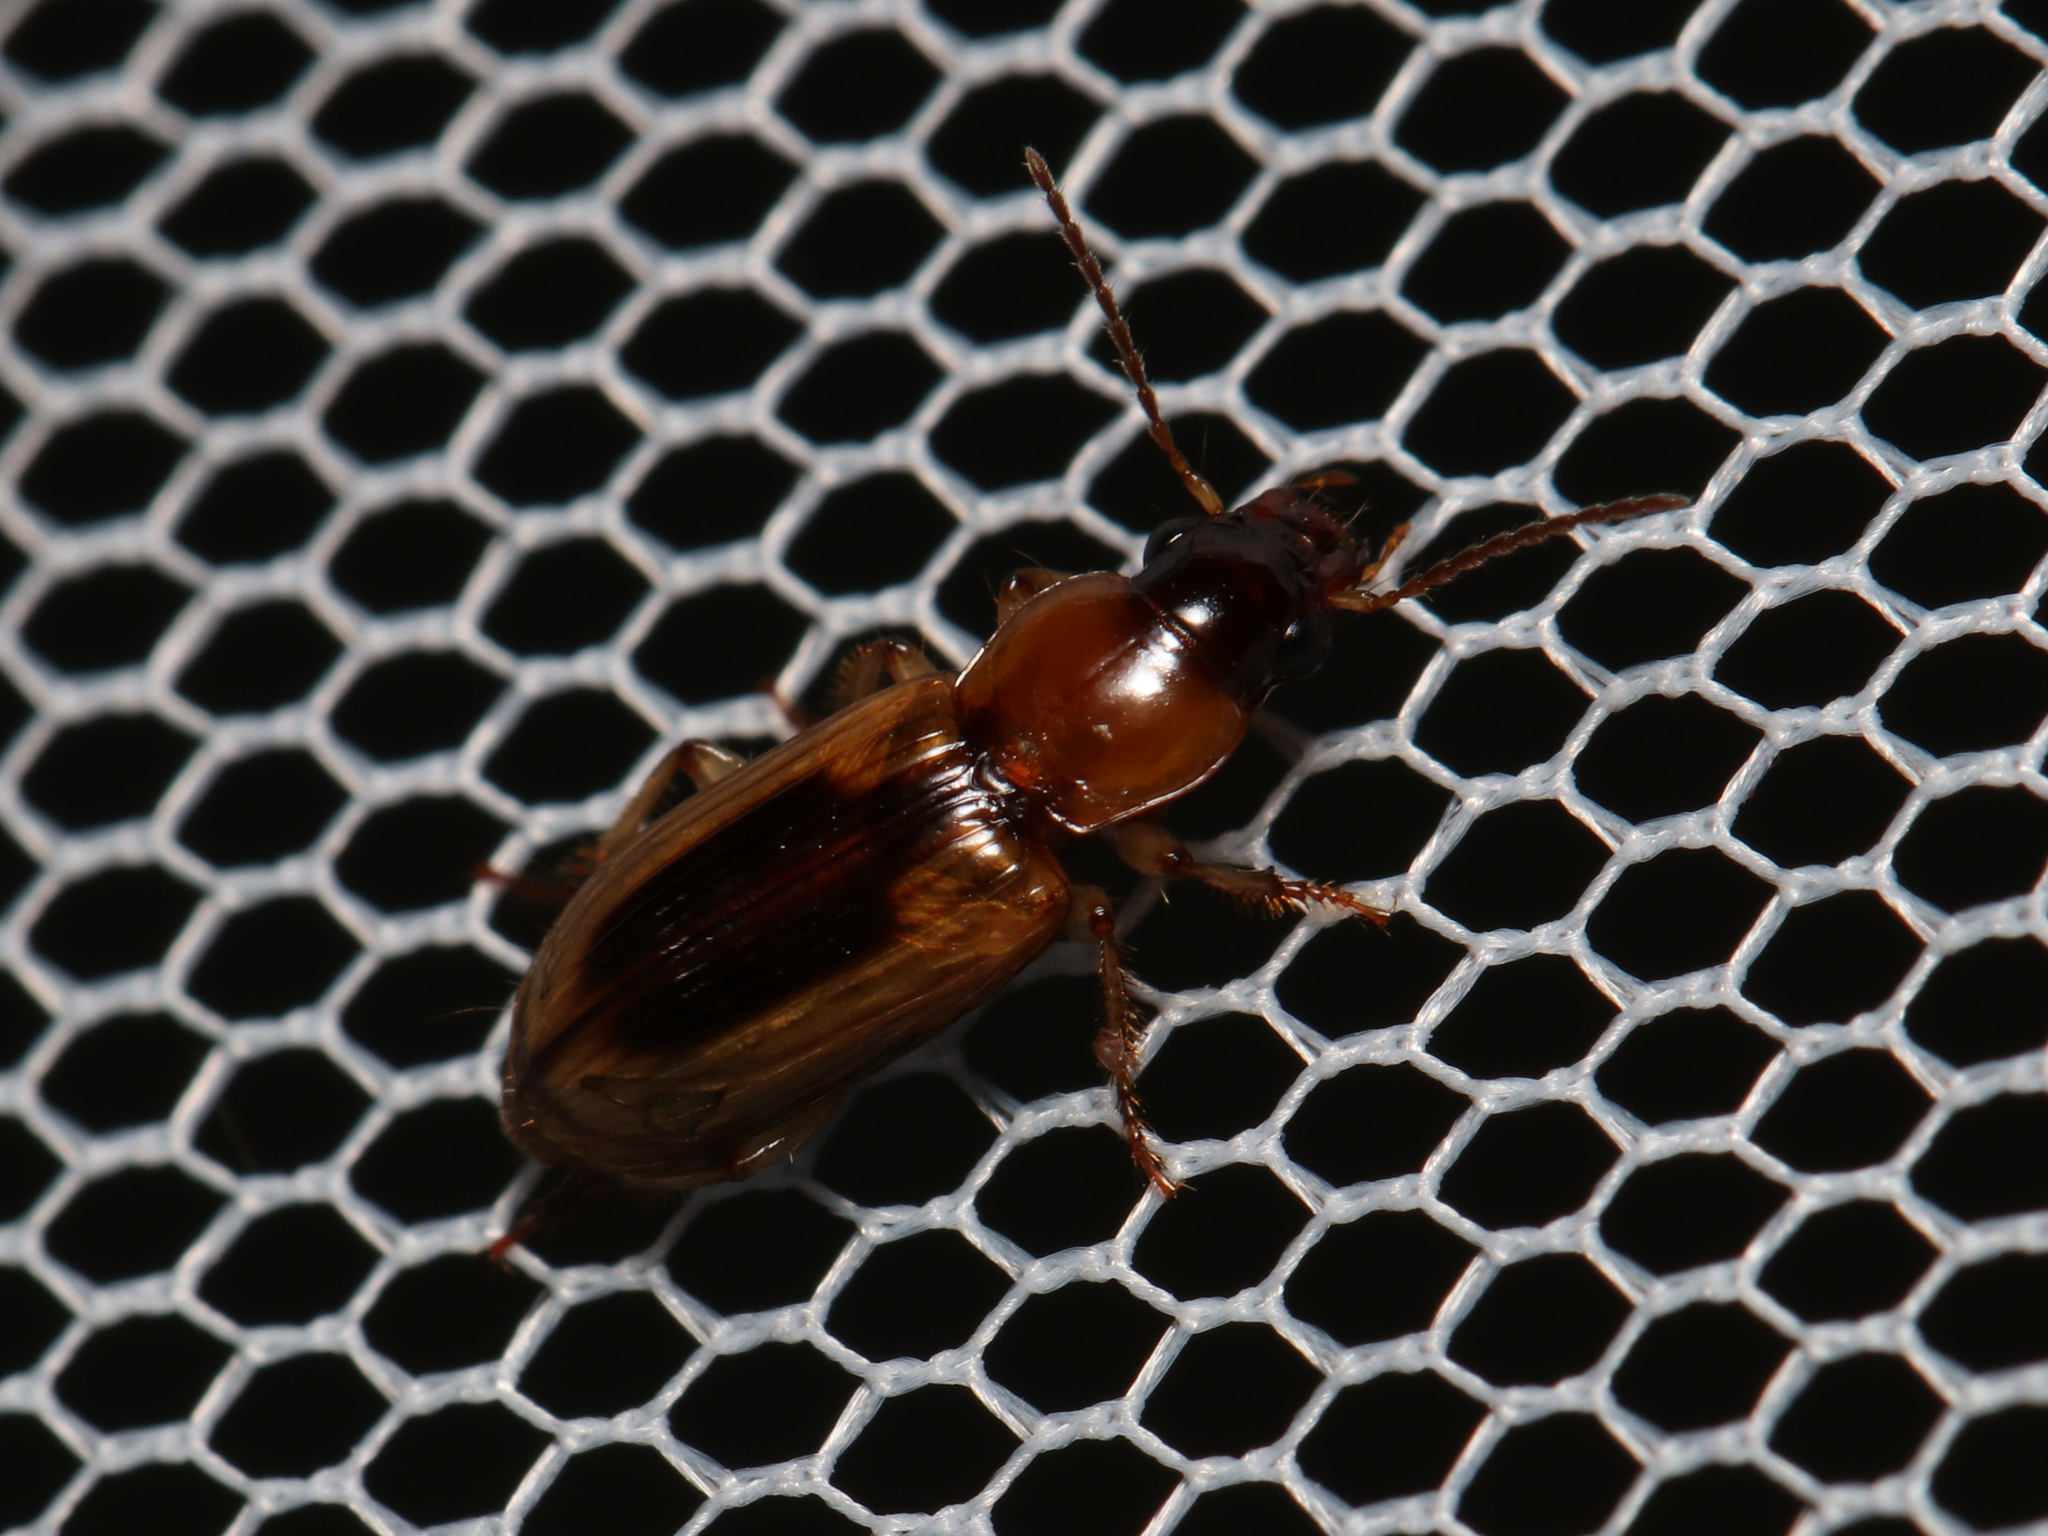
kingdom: Animalia
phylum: Arthropoda
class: Insecta
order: Coleoptera
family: Carabidae
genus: Stenolophus
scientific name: Stenolophus lecontei
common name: Leconte's seedcorn beetle
